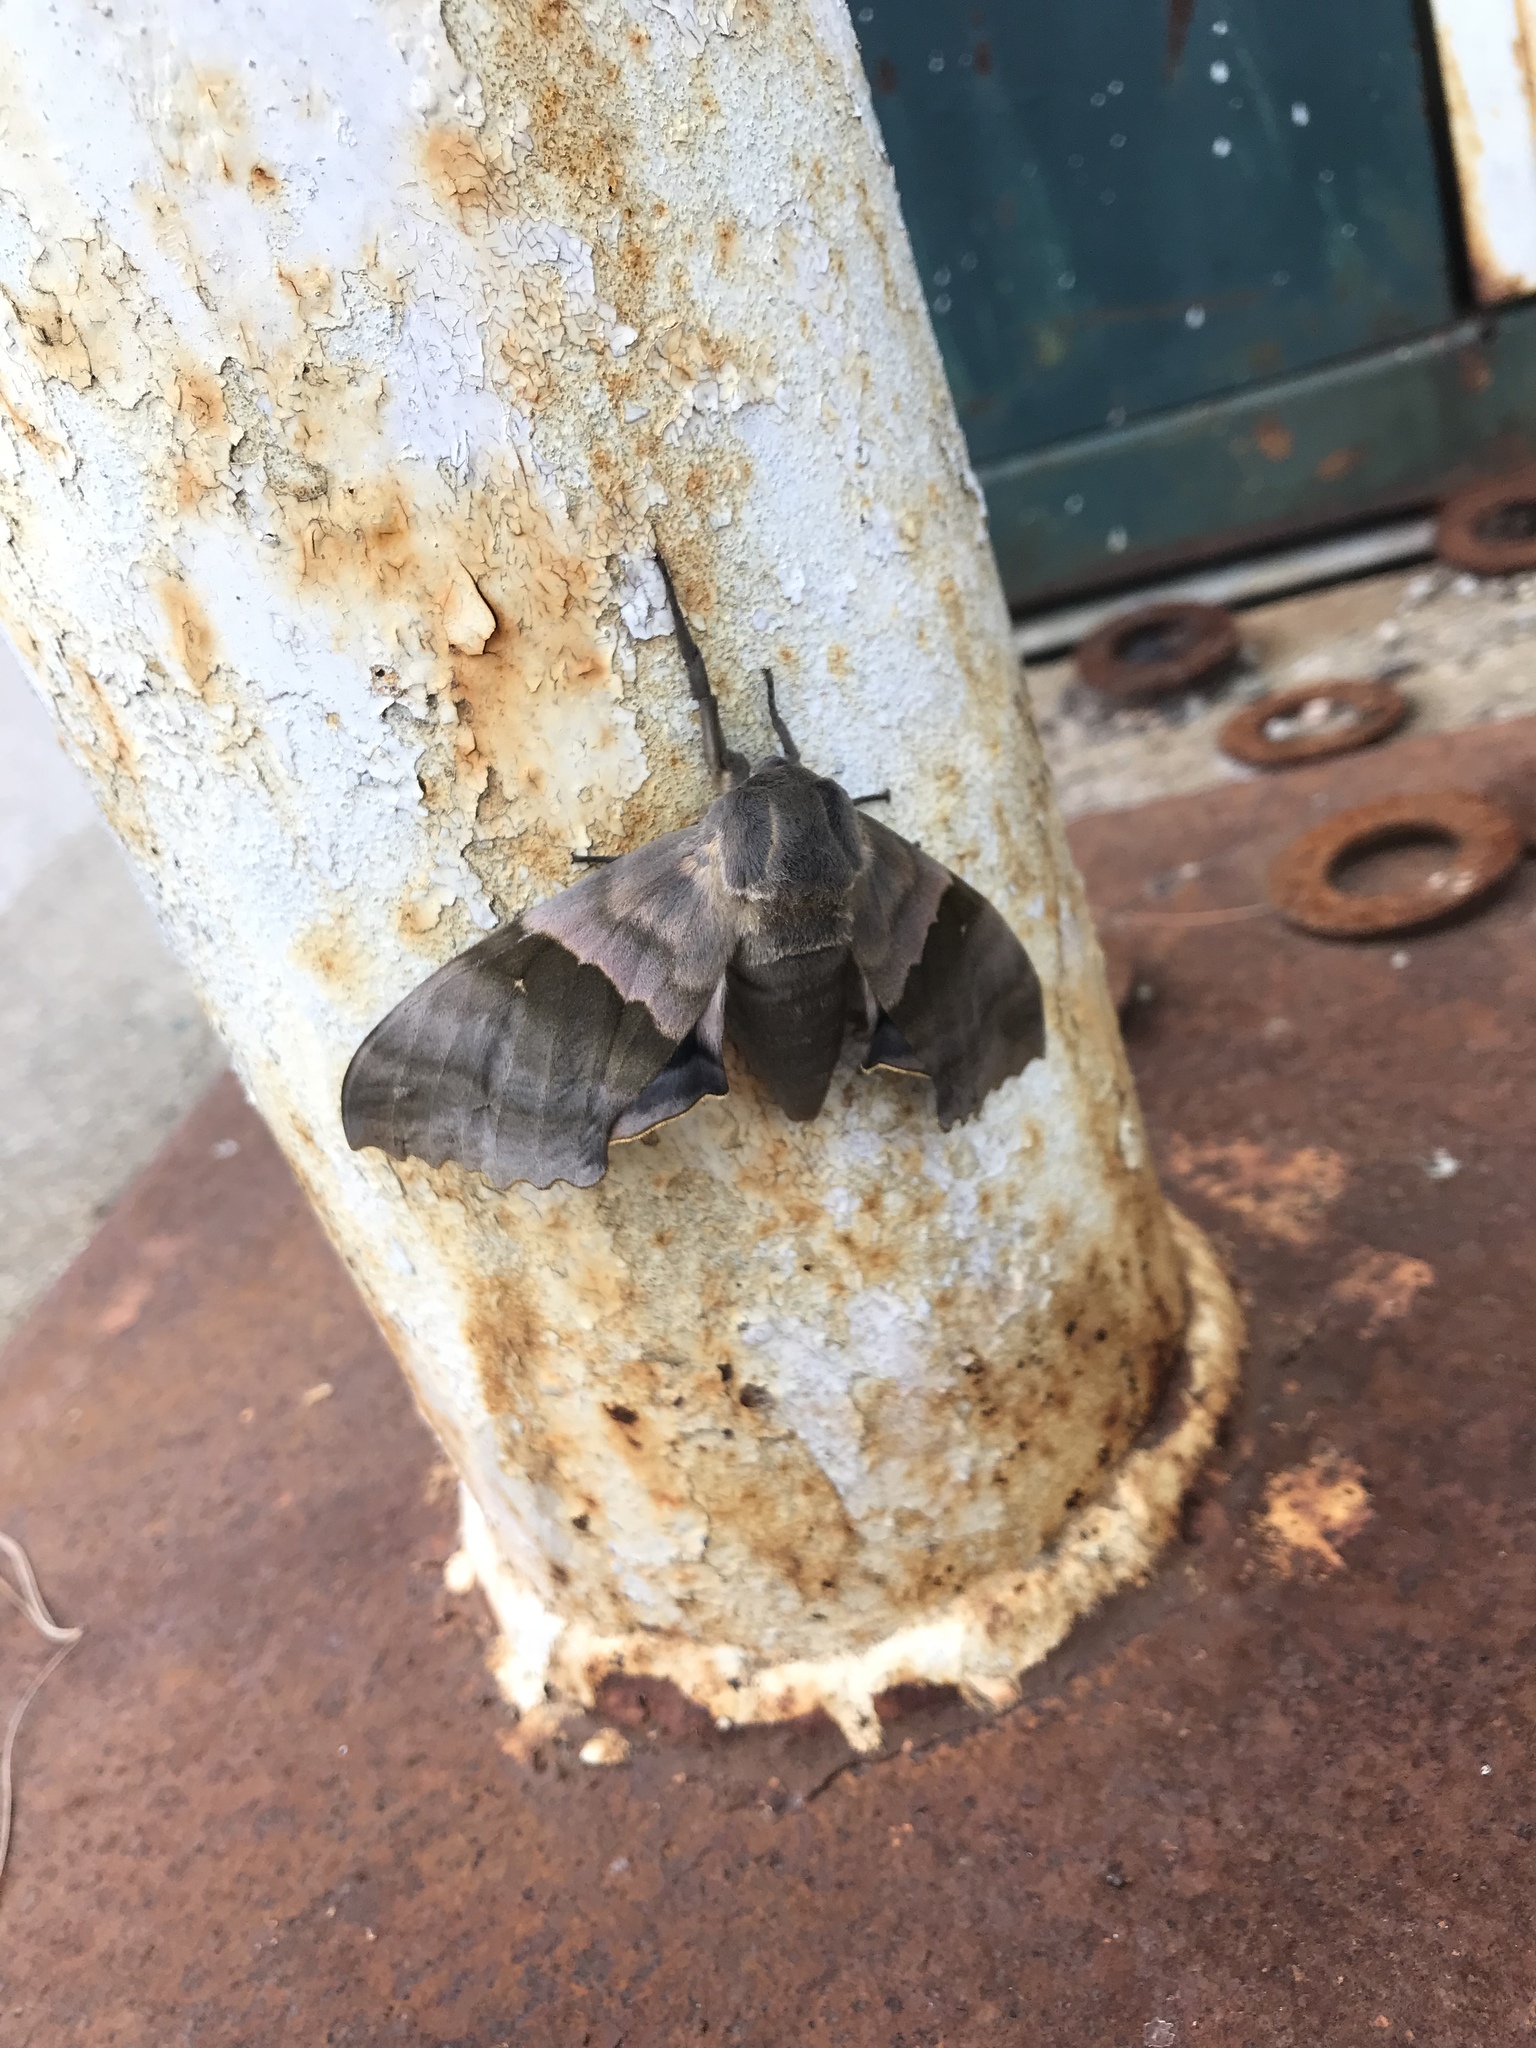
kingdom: Animalia
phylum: Arthropoda
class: Insecta
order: Lepidoptera
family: Sphingidae
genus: Pachysphinx
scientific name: Pachysphinx modesta
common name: Big poplar sphinx
